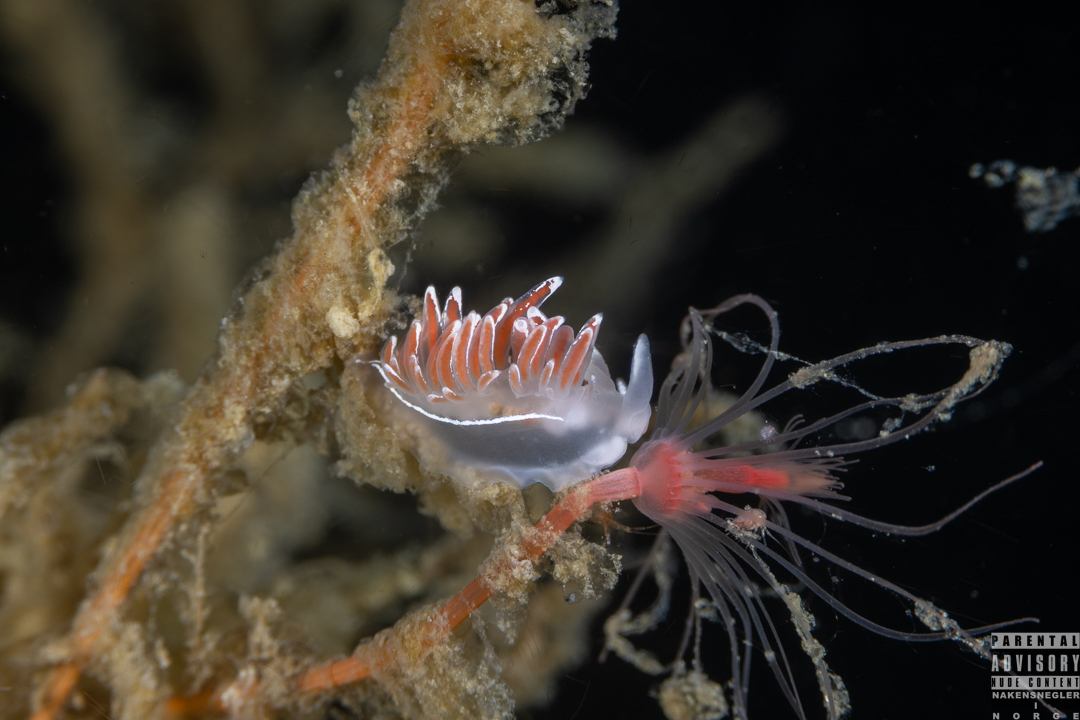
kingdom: Animalia
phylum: Mollusca
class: Gastropoda
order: Nudibranchia
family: Coryphellidae
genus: Coryphella
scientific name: Coryphella lineata
